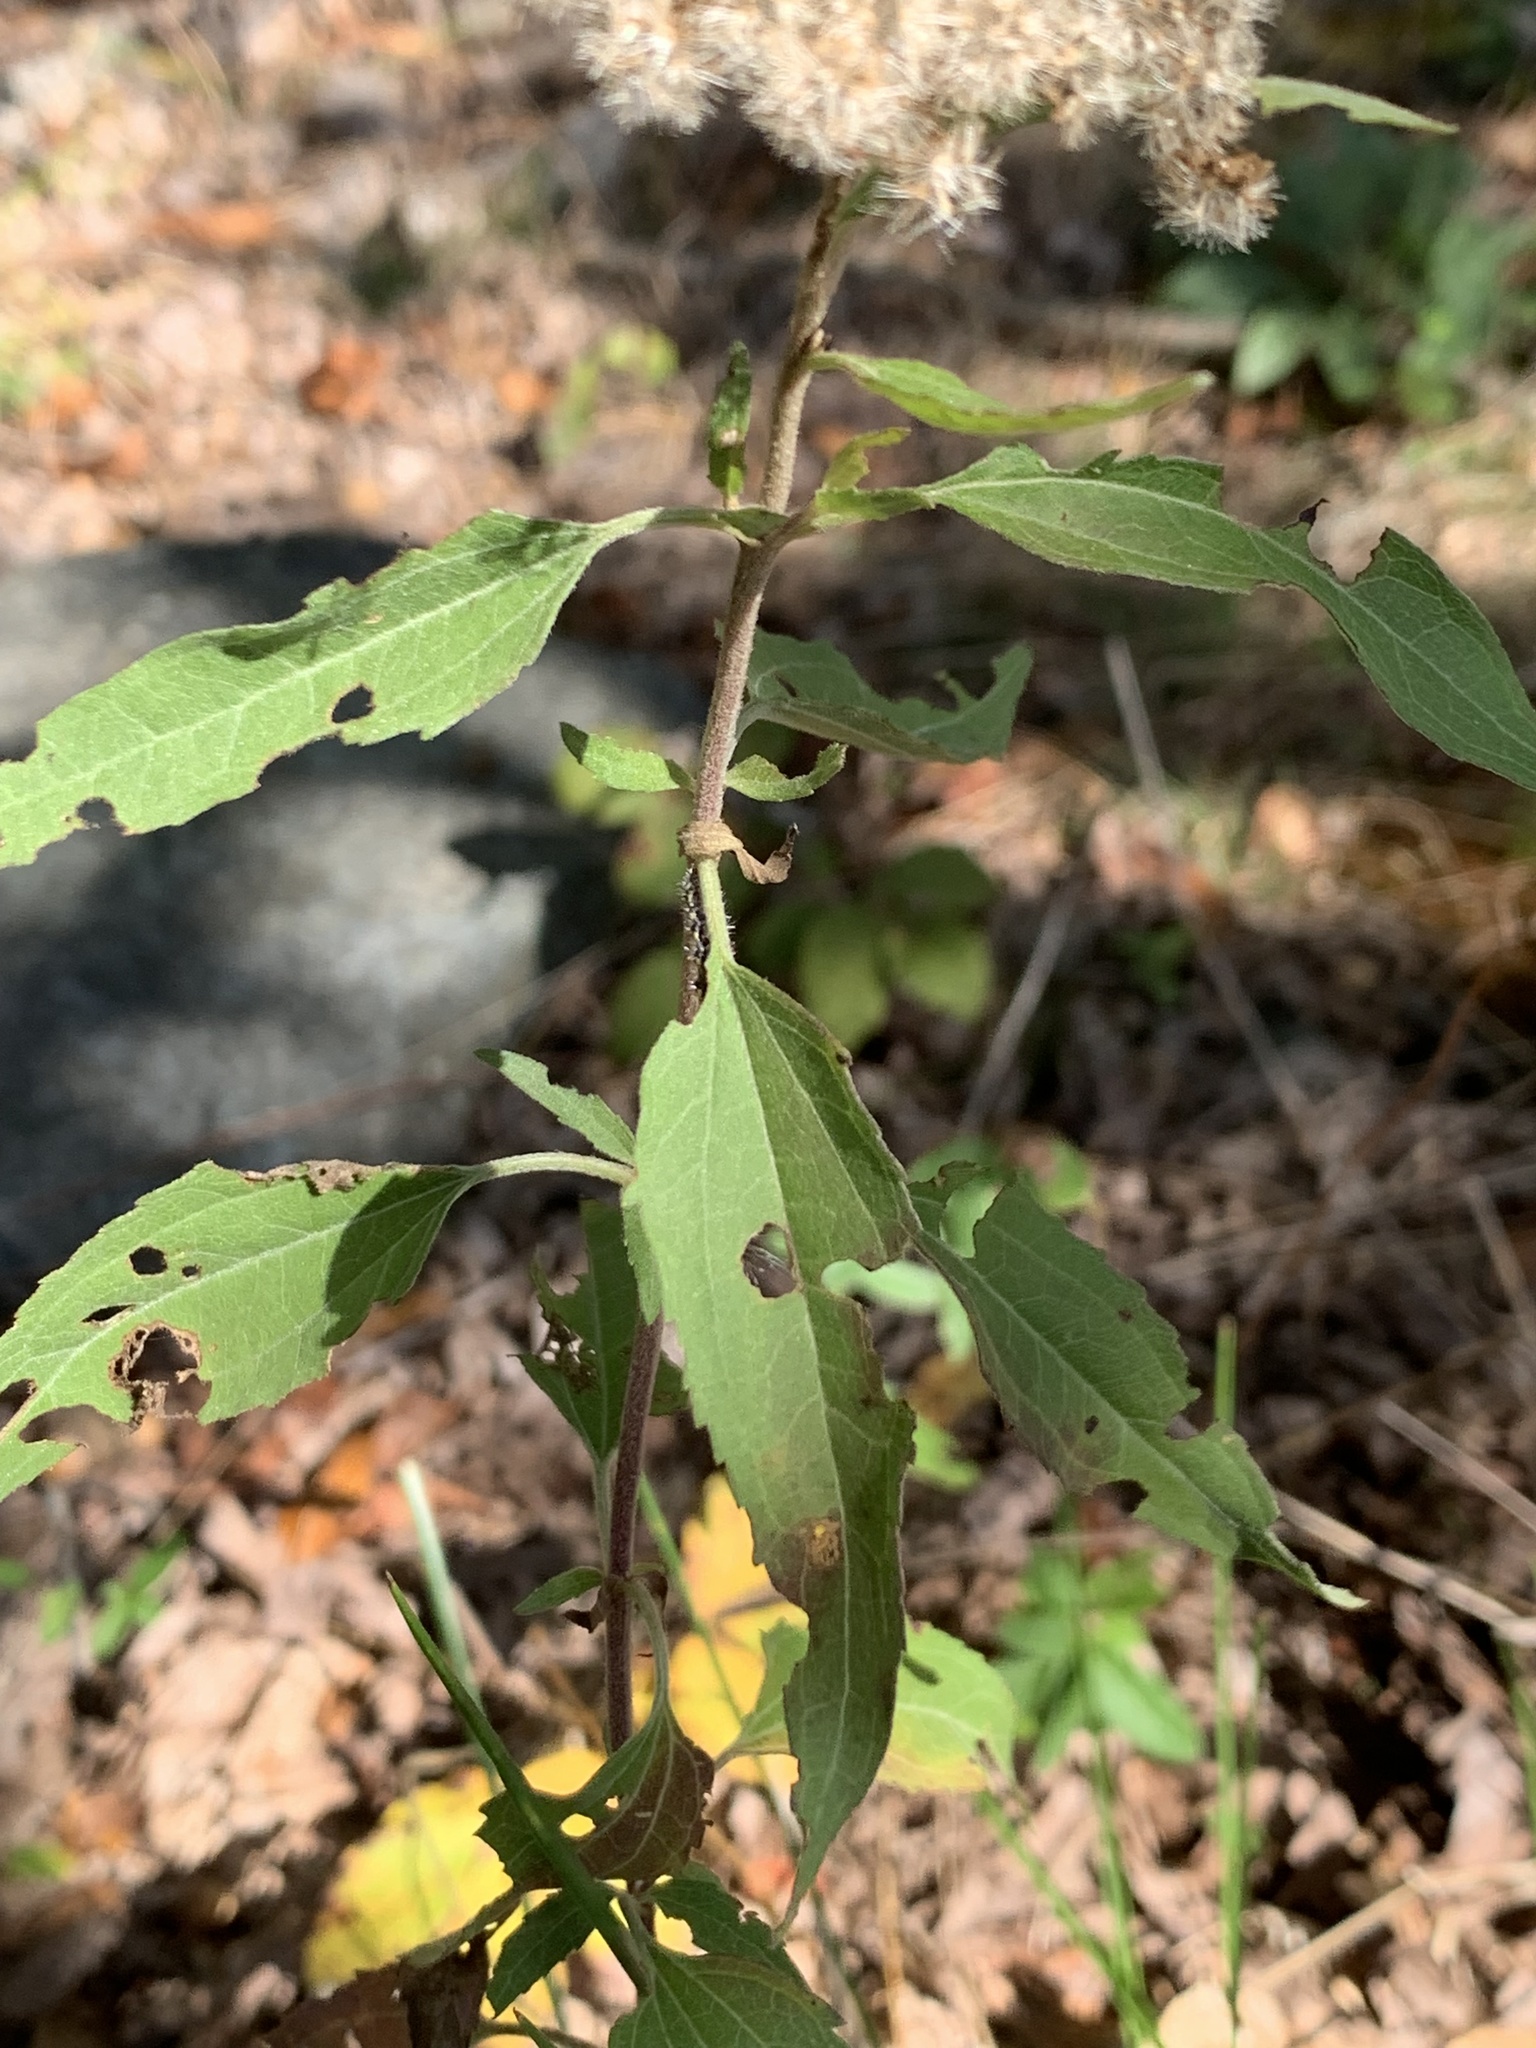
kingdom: Plantae
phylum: Tracheophyta
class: Magnoliopsida
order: Asterales
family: Asteraceae
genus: Eupatorium
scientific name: Eupatorium serotinum
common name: Late boneset
